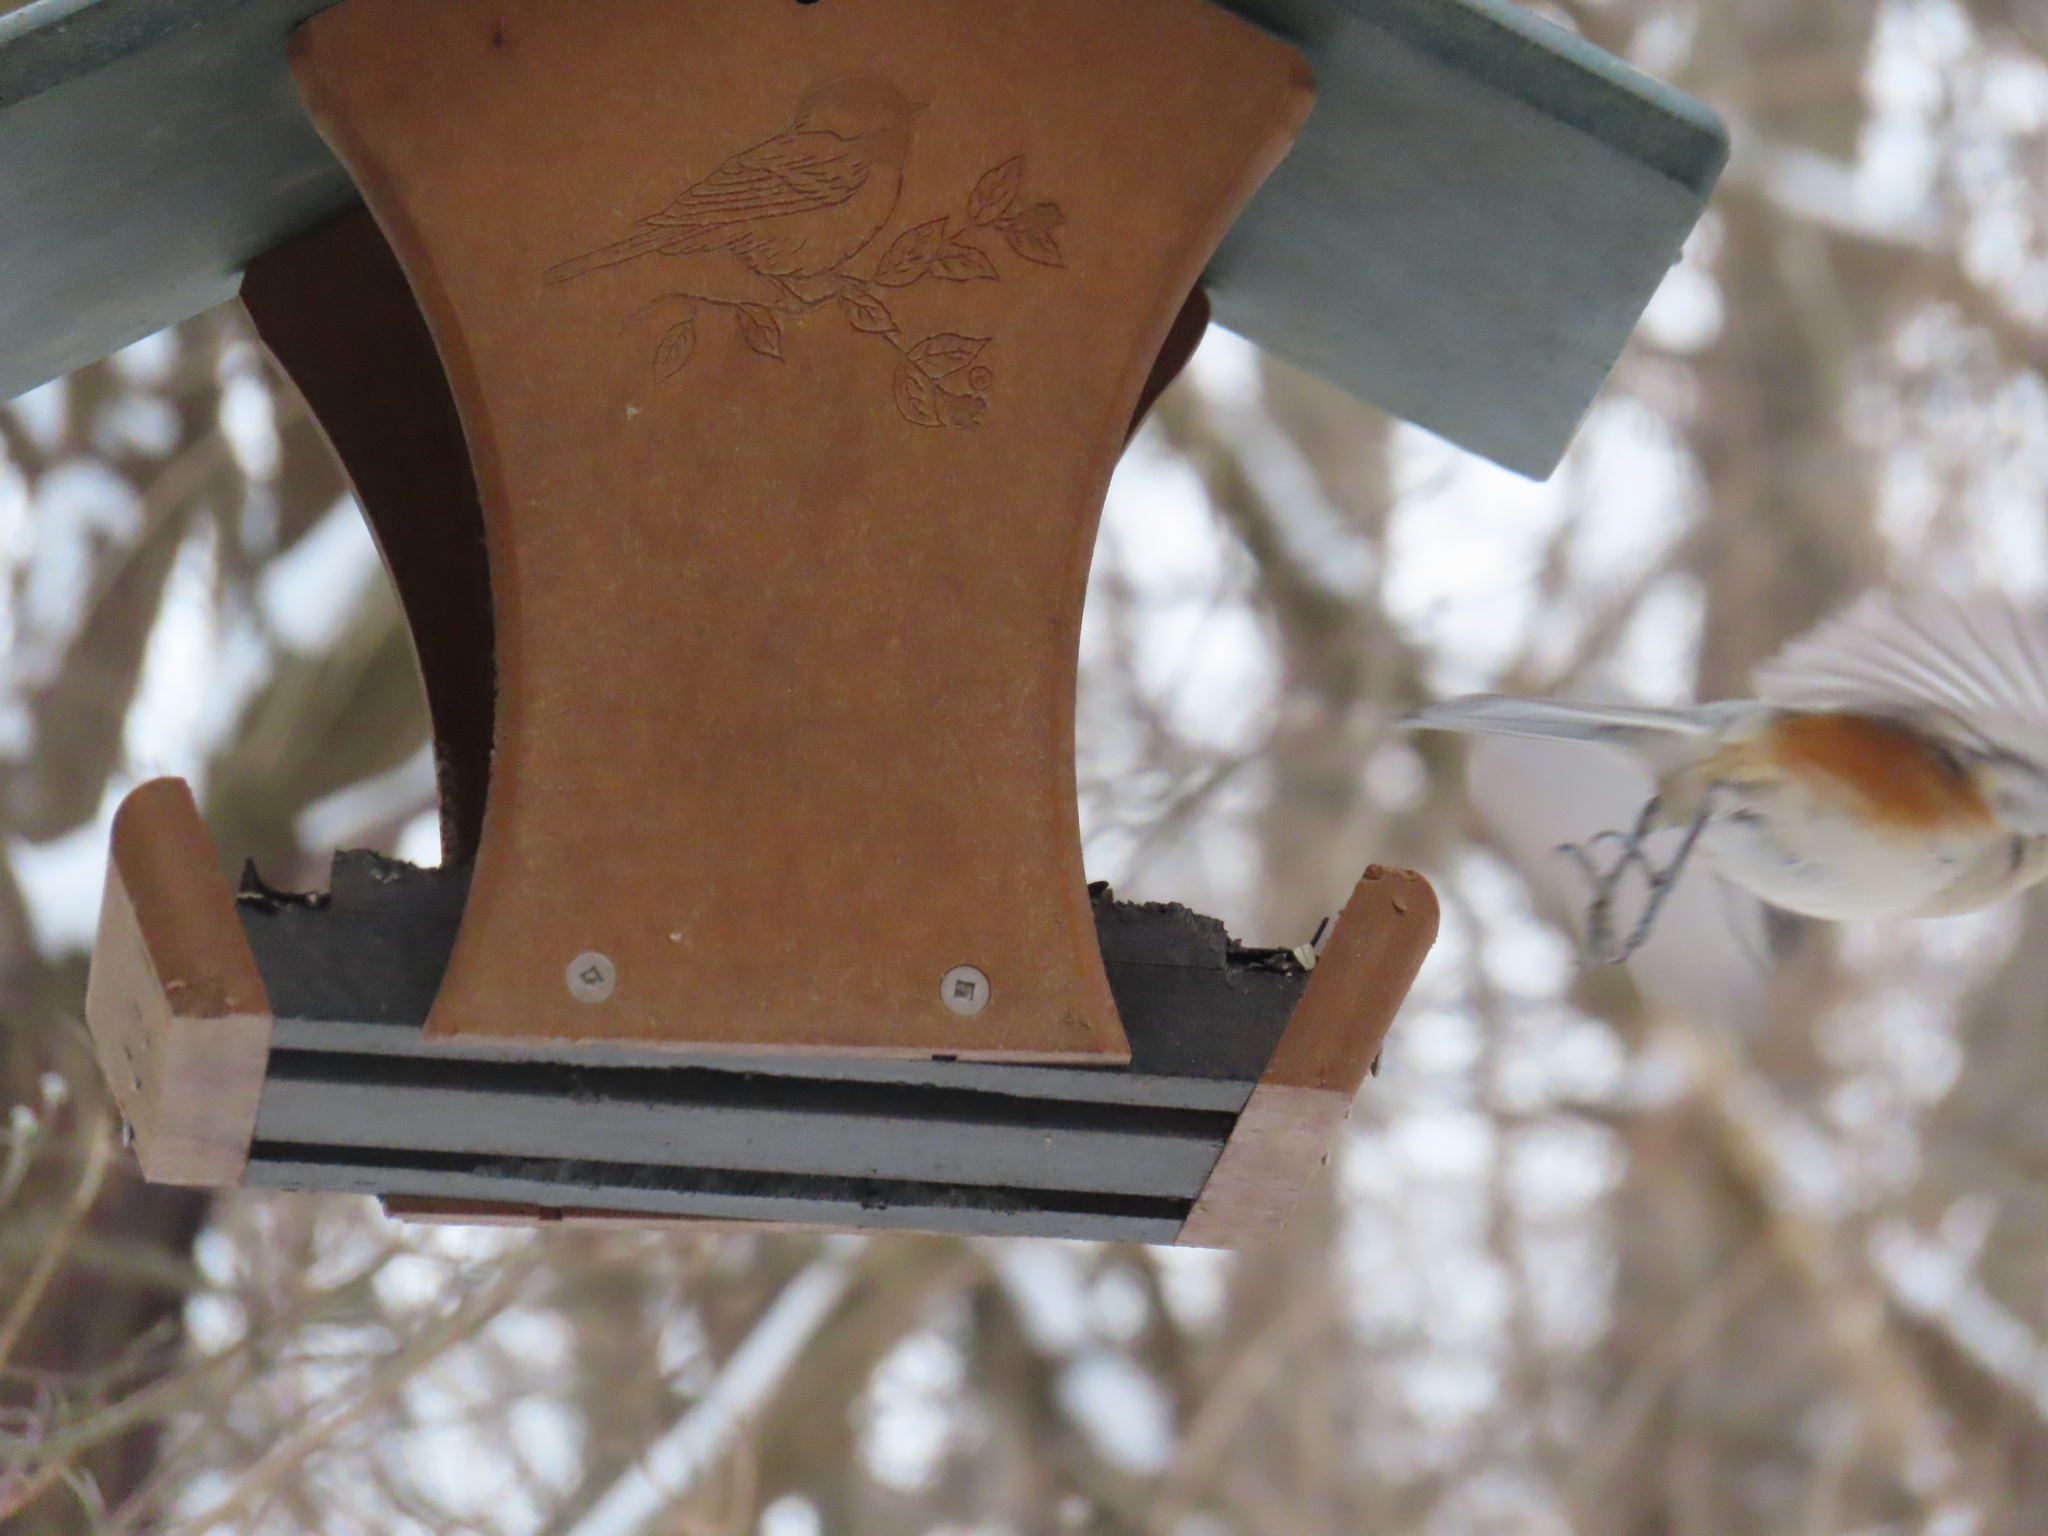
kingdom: Animalia
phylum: Chordata
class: Aves
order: Passeriformes
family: Paridae
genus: Baeolophus
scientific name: Baeolophus bicolor
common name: Tufted titmouse
